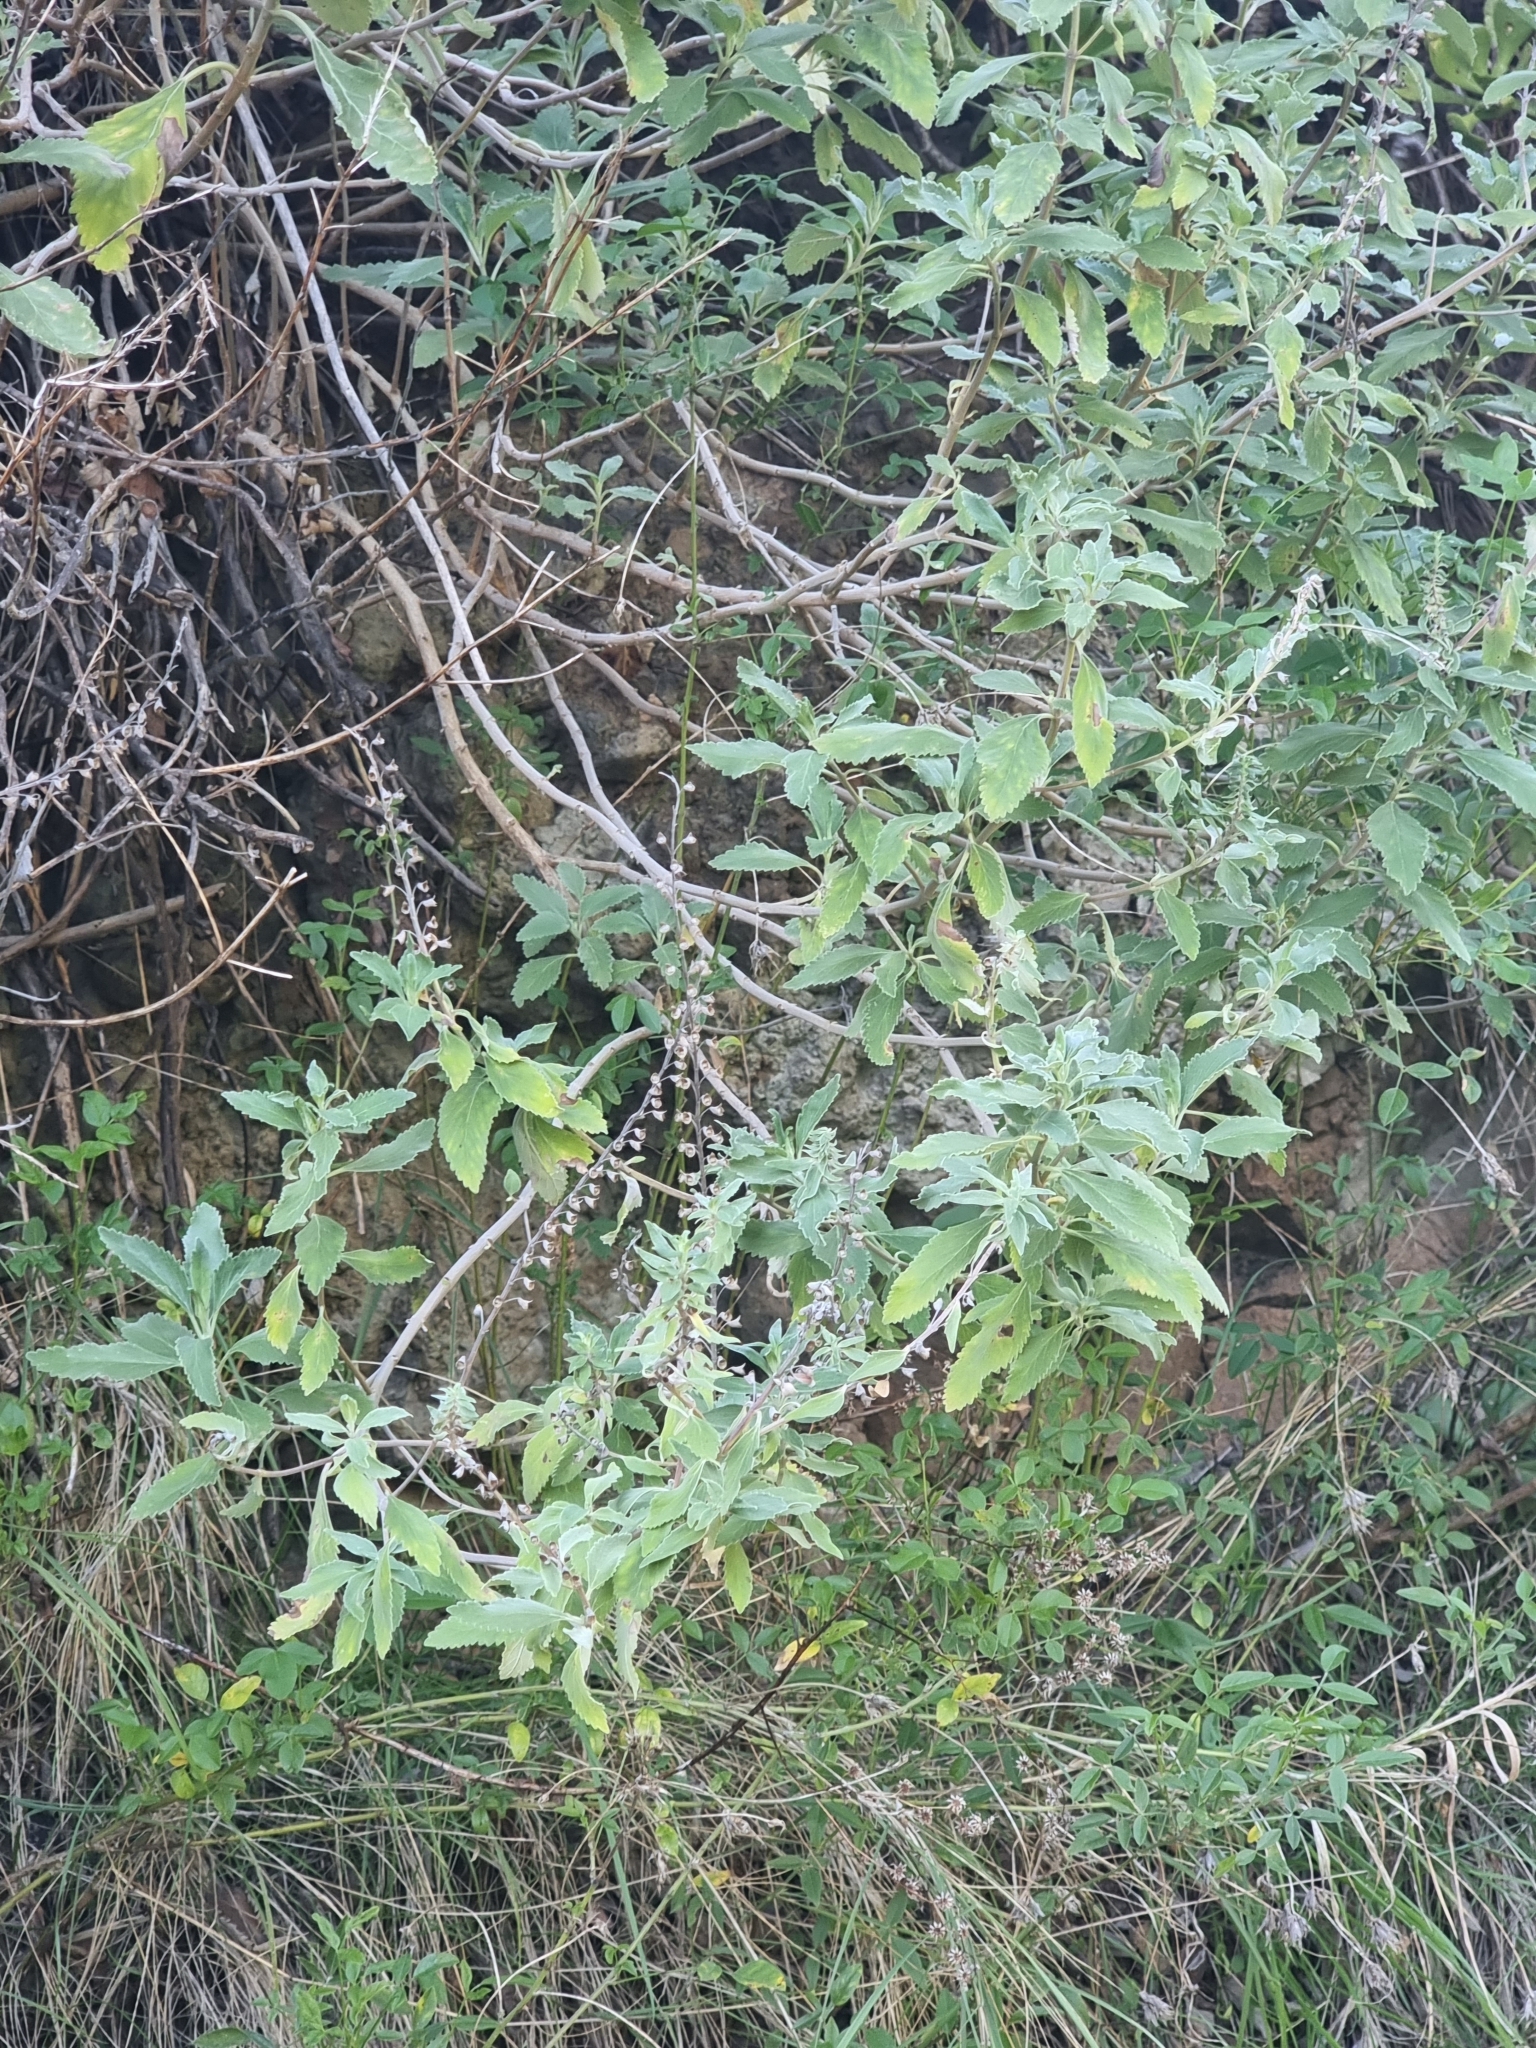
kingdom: Plantae
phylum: Tracheophyta
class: Magnoliopsida
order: Lamiales
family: Lamiaceae
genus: Teucrium
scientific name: Teucrium betonicum
